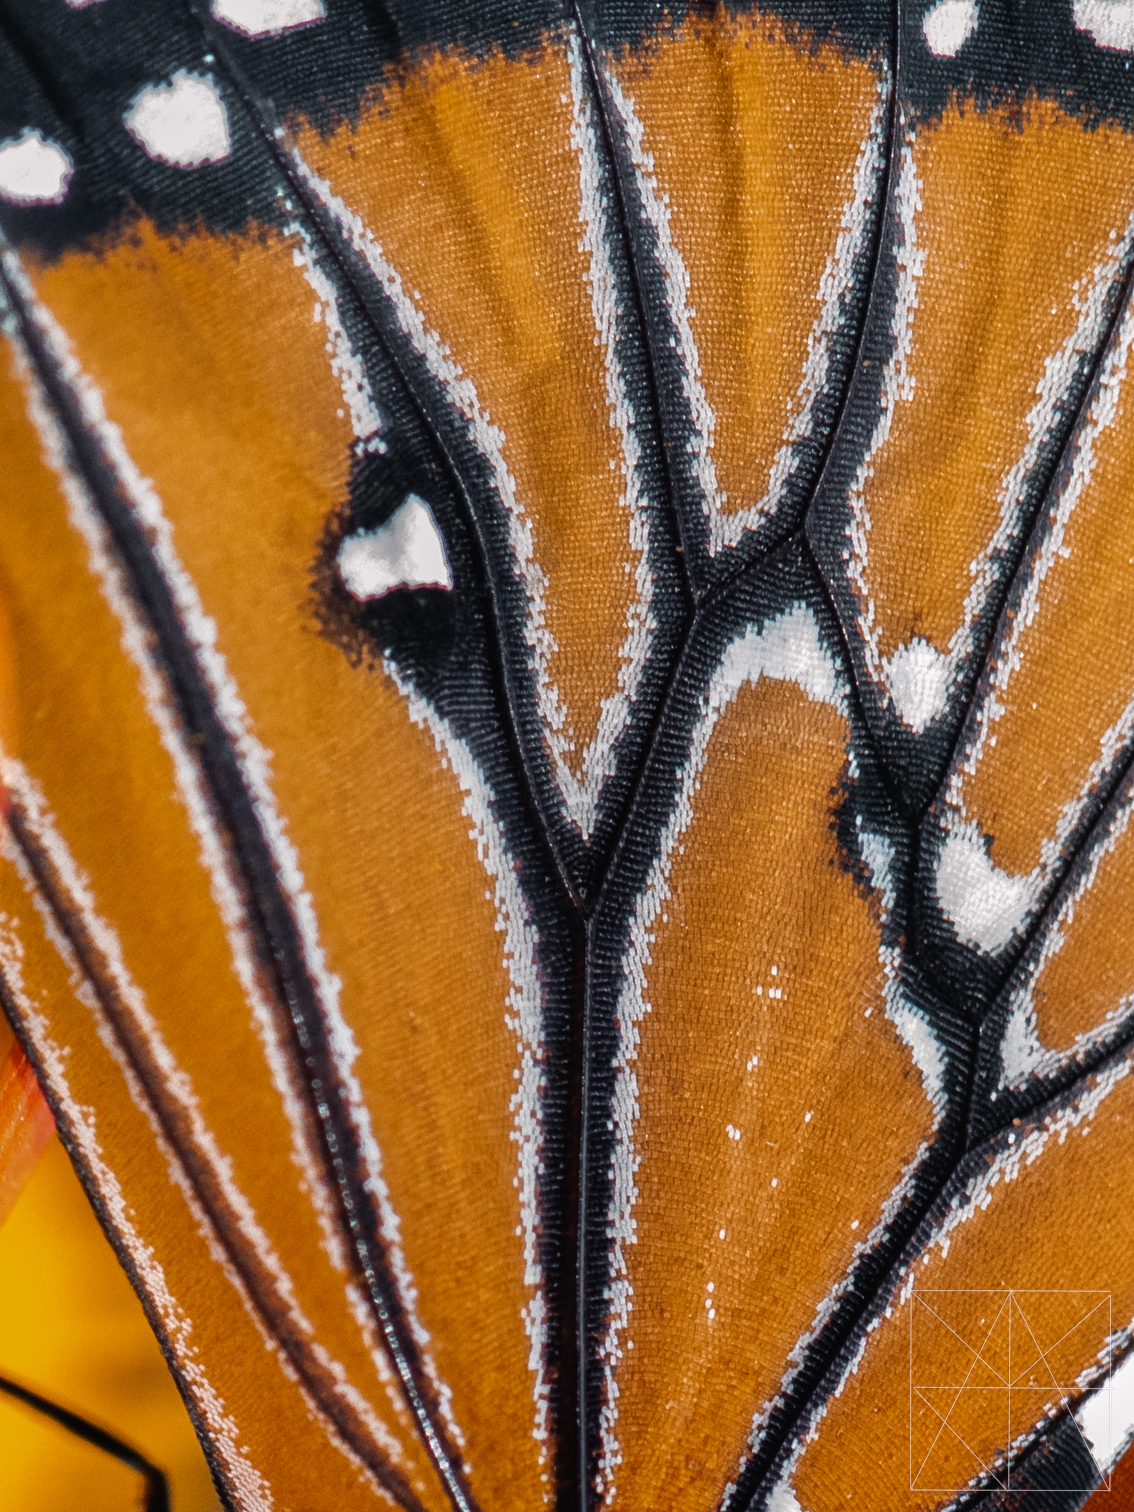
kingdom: Animalia
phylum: Arthropoda
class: Insecta
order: Lepidoptera
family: Nymphalidae
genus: Danaus
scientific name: Danaus gilippus
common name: Queen
